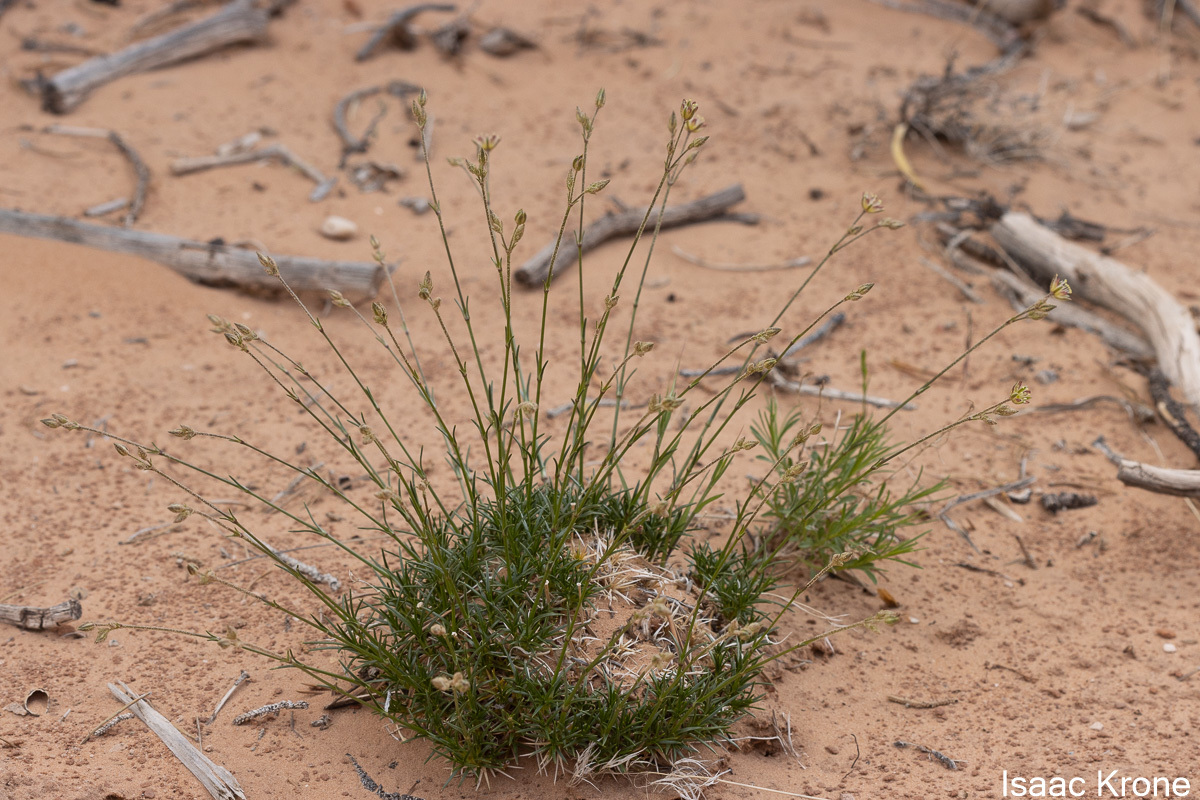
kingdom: Plantae
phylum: Tracheophyta
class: Magnoliopsida
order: Caryophyllales
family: Caryophyllaceae
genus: Eremogone
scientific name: Eremogone eastwoodiae
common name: Eastwood's sandwort
